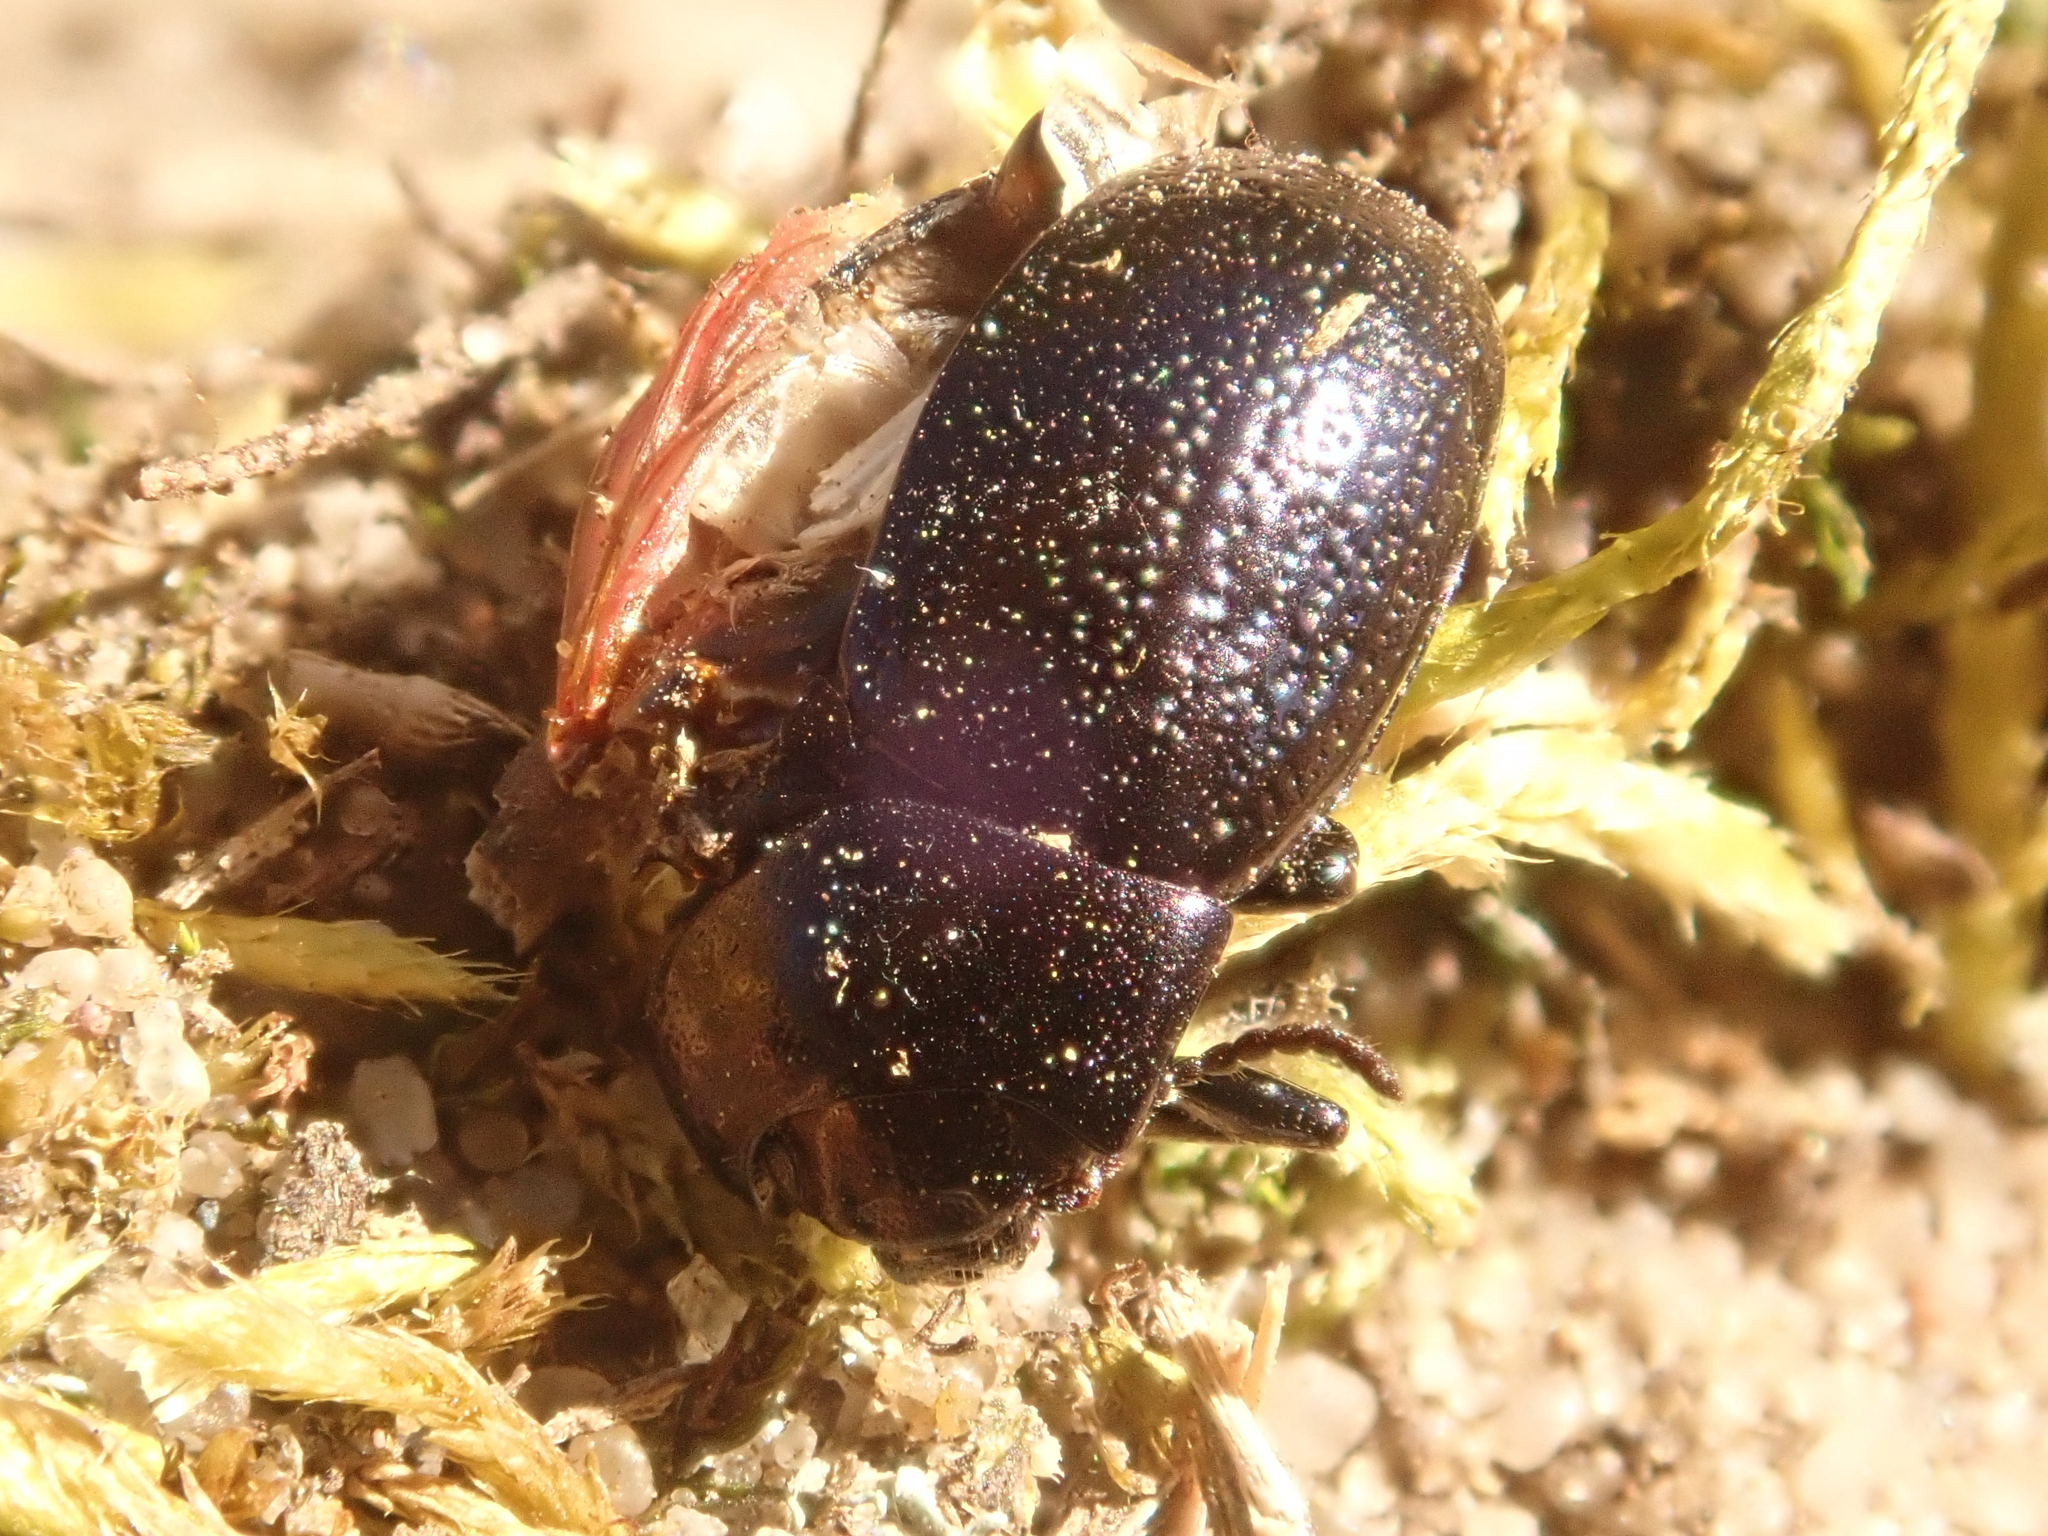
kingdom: Animalia
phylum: Arthropoda
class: Insecta
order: Coleoptera
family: Chrysomelidae
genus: Chrysolina
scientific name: Chrysolina haemoptera
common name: Plantain leaf beetle
